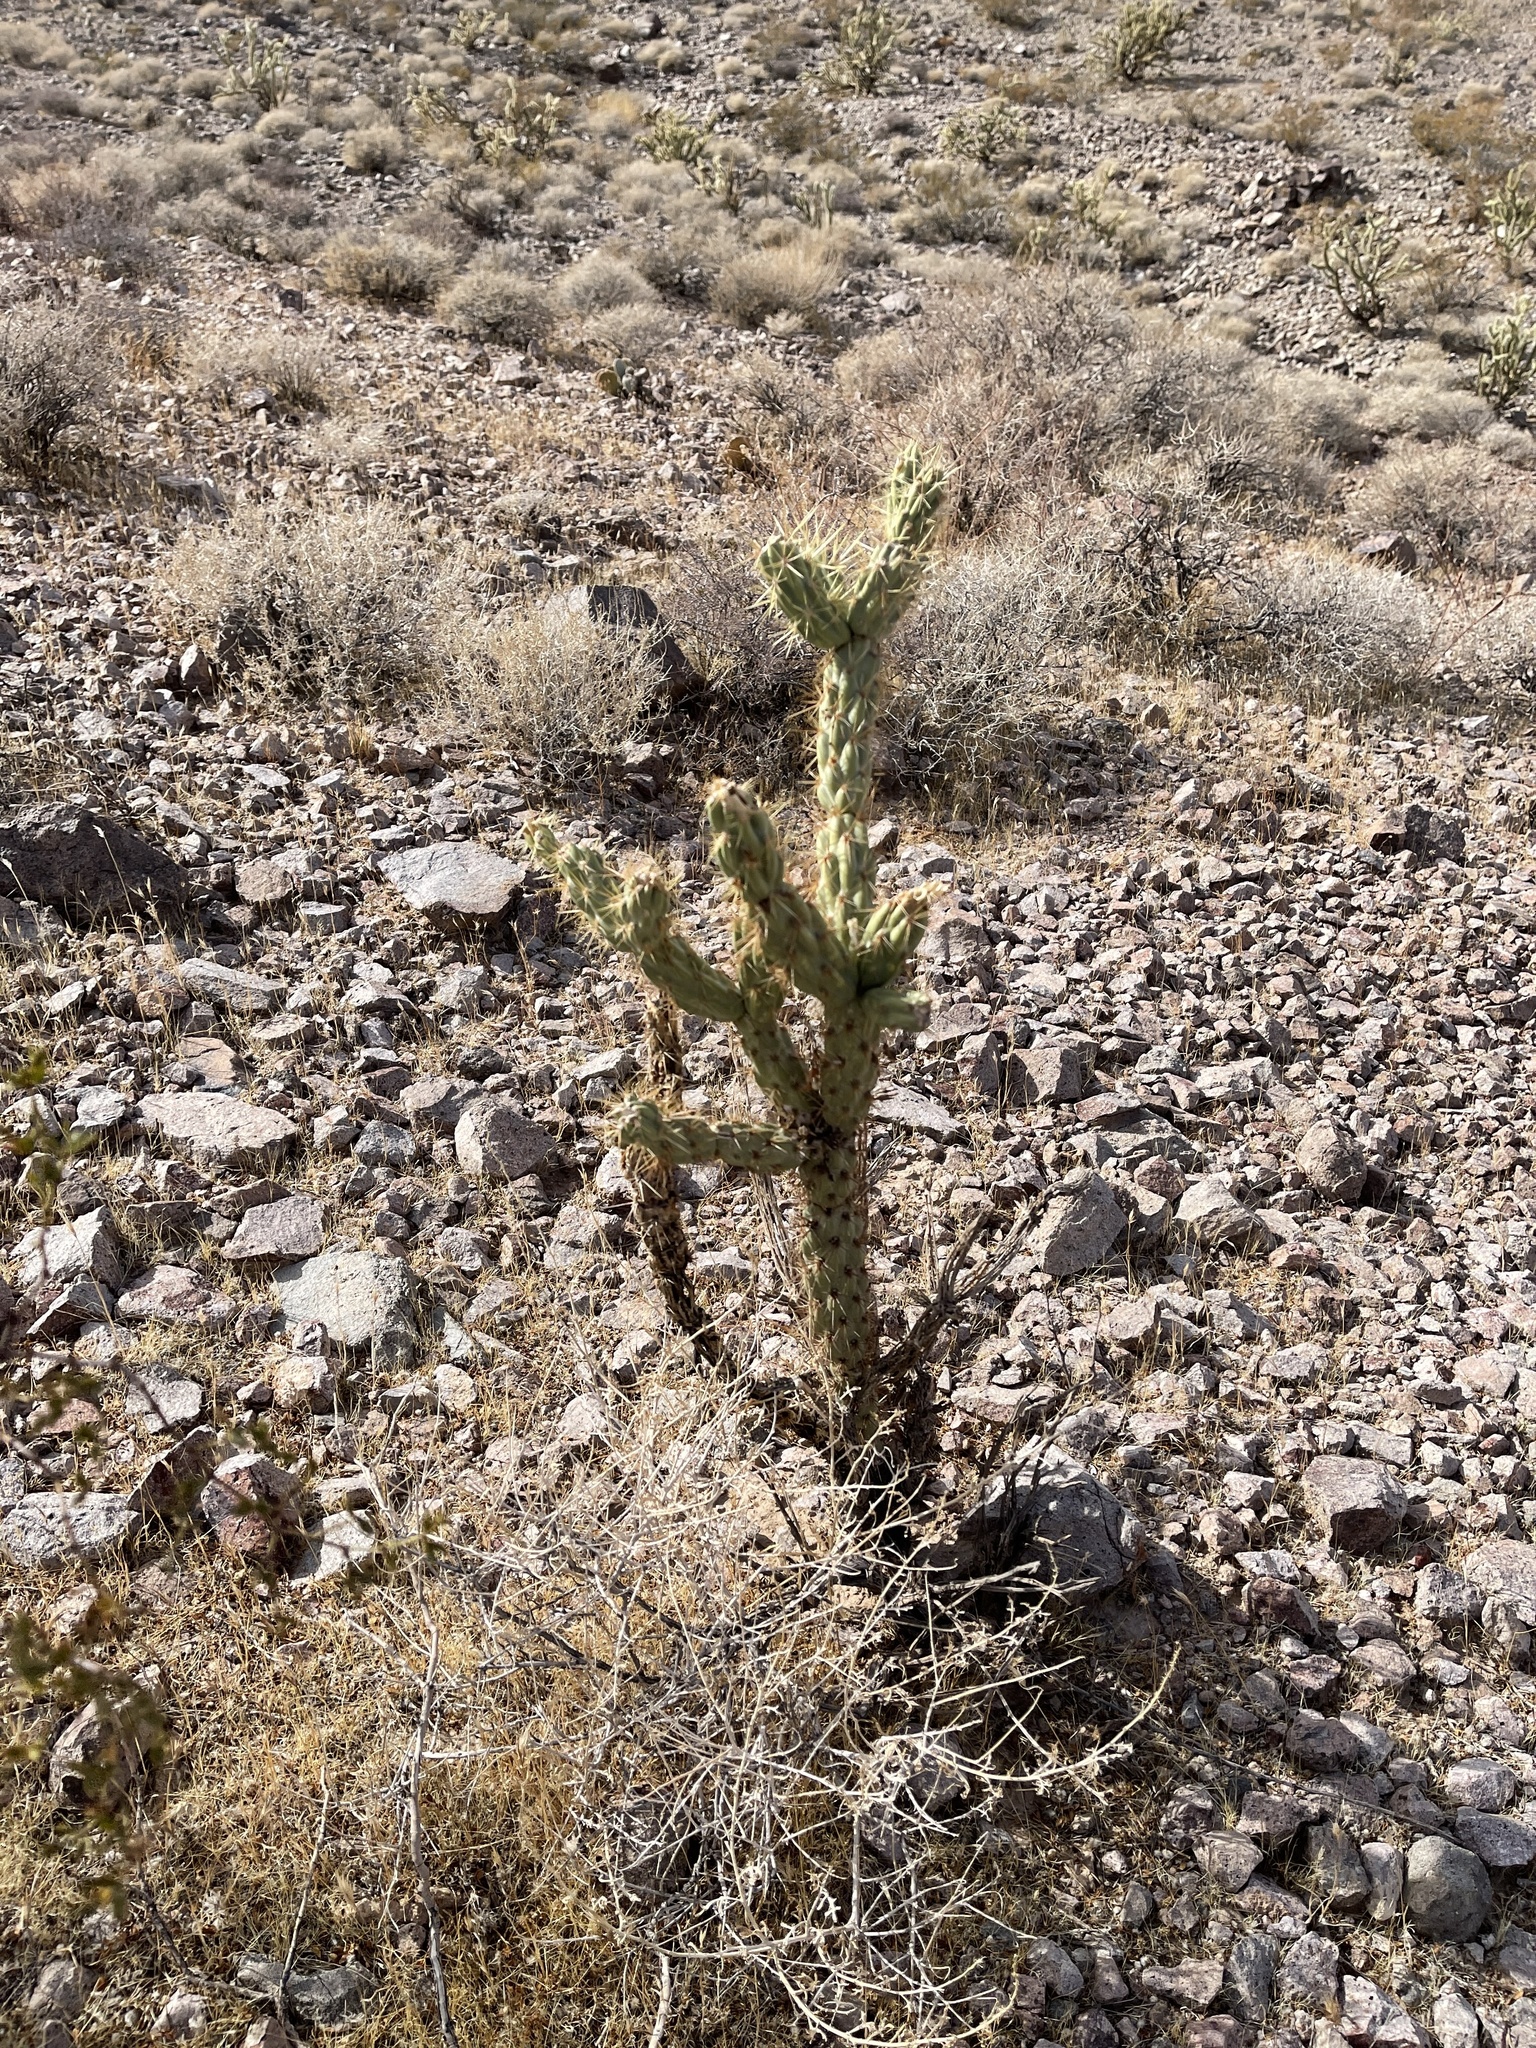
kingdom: Plantae
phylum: Tracheophyta
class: Magnoliopsida
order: Caryophyllales
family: Cactaceae
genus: Cylindropuntia
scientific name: Cylindropuntia acanthocarpa
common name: Buckhorn cholla
